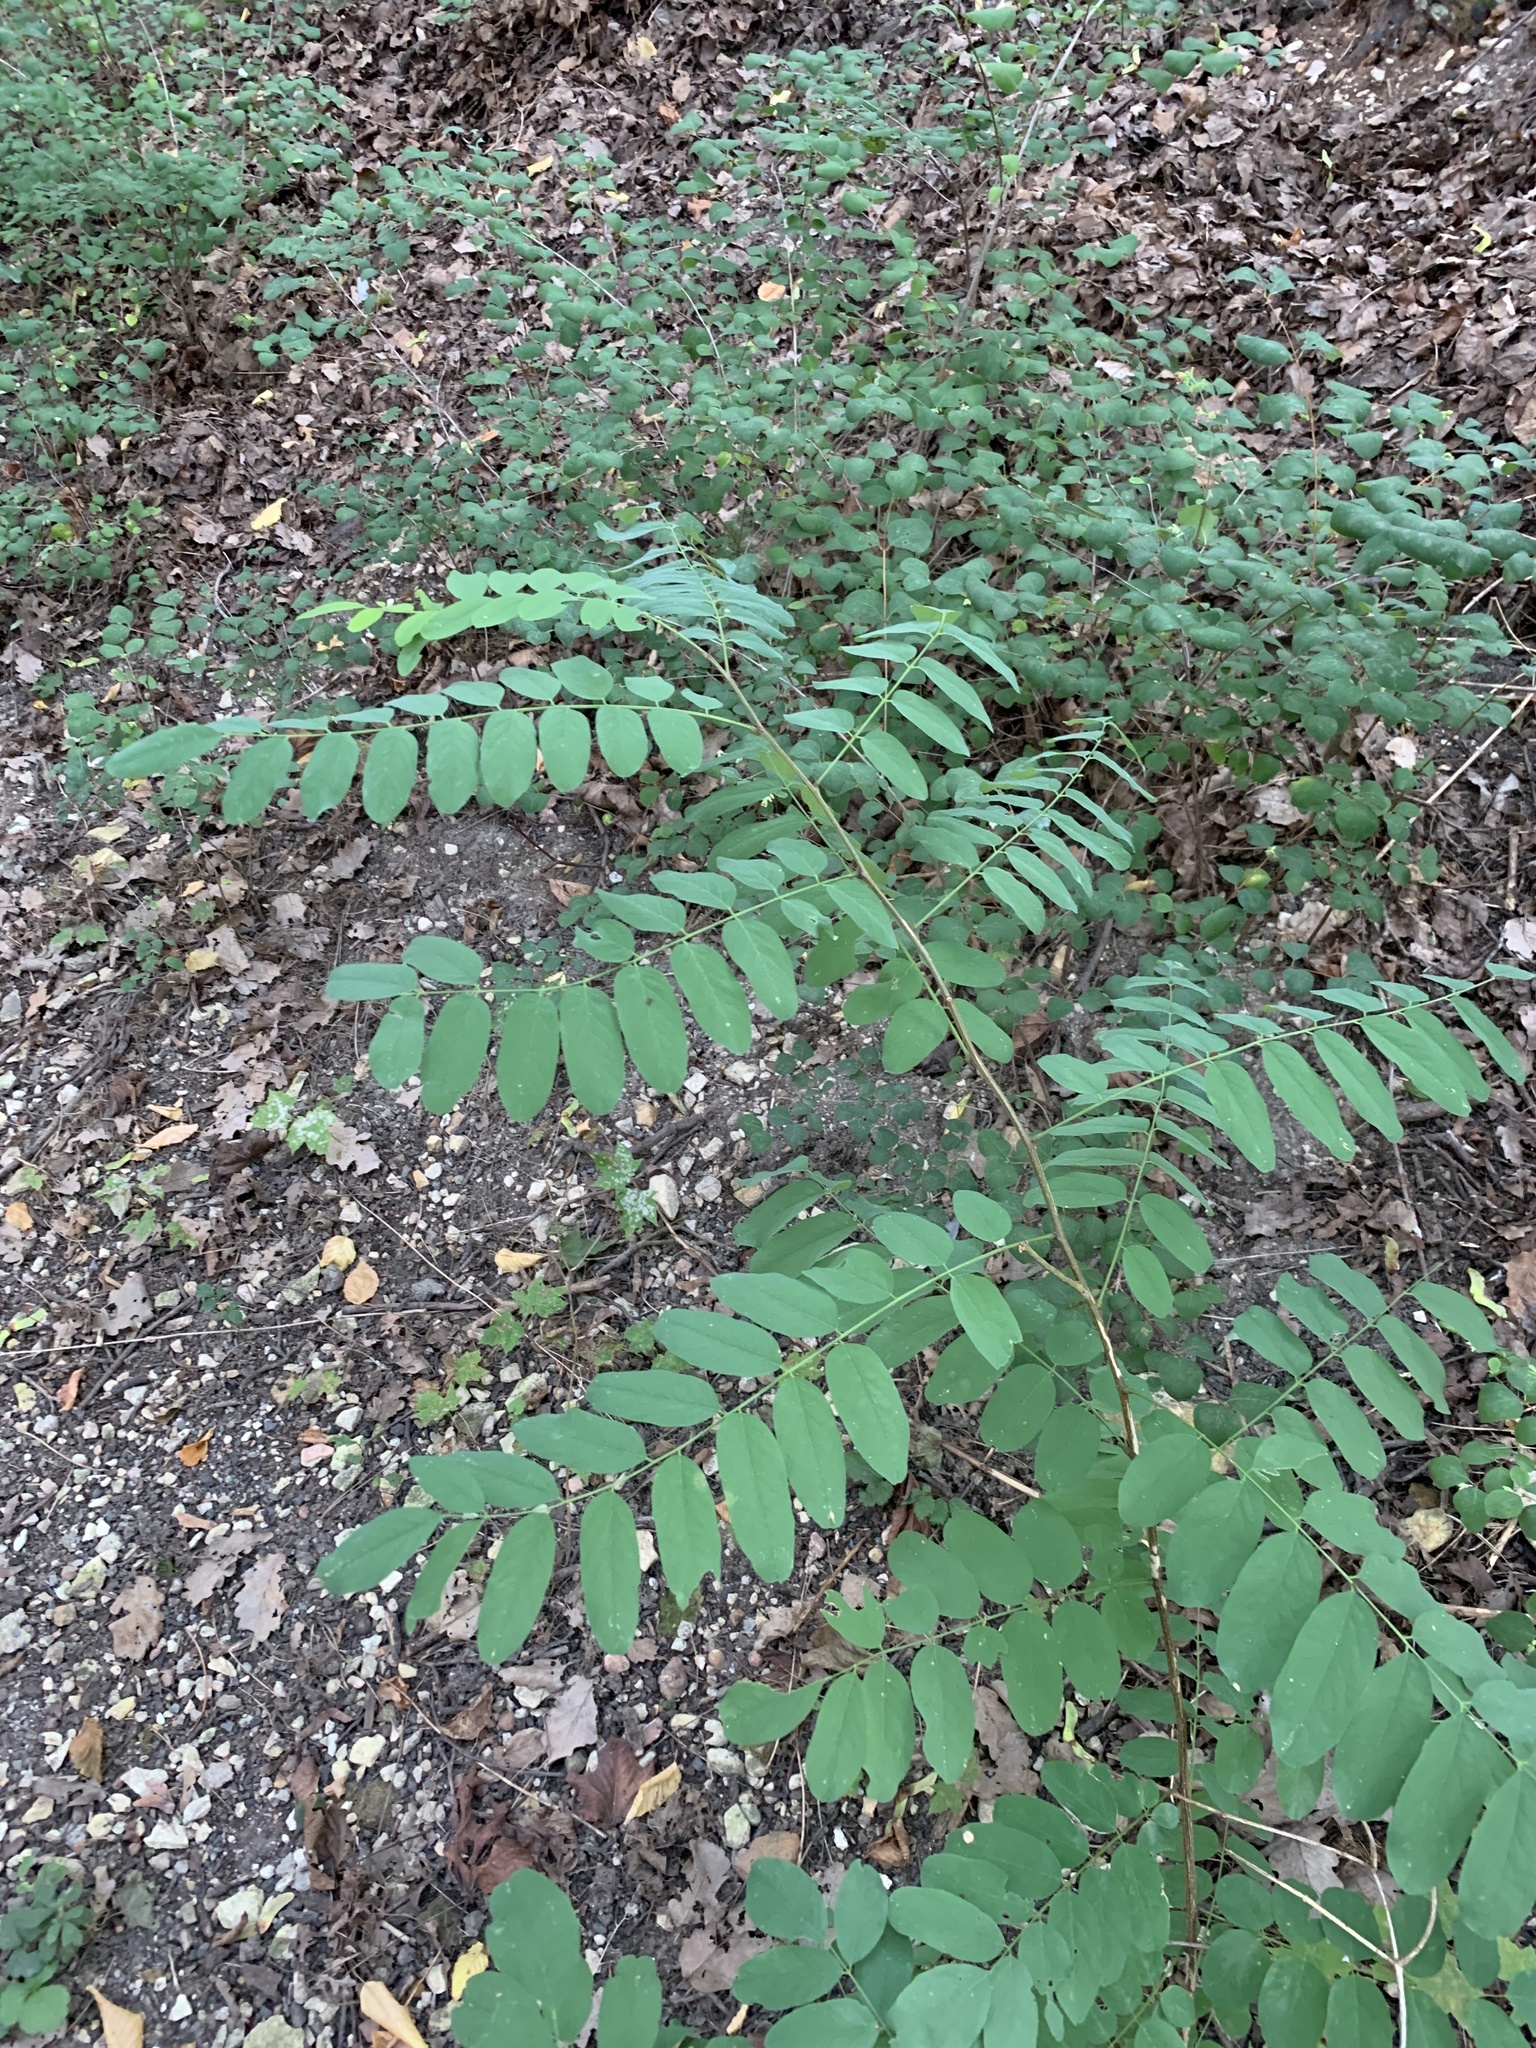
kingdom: Plantae
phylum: Tracheophyta
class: Magnoliopsida
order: Fabales
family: Fabaceae
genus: Robinia
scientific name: Robinia pseudoacacia
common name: Black locust
